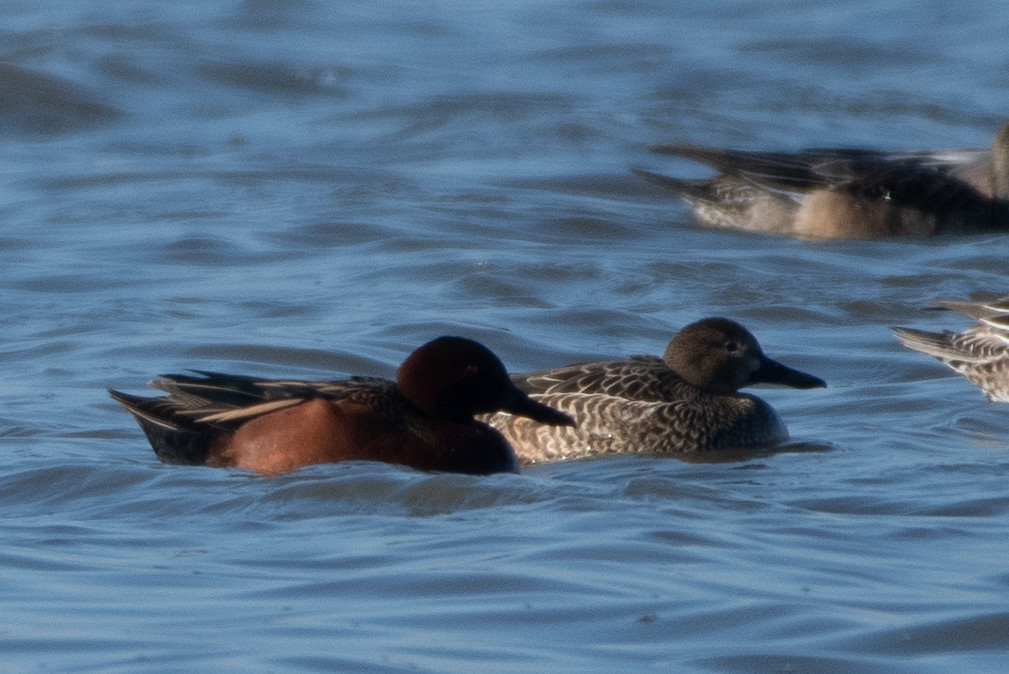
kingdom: Animalia
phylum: Chordata
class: Aves
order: Anseriformes
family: Anatidae
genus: Spatula
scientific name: Spatula cyanoptera
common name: Cinnamon teal
